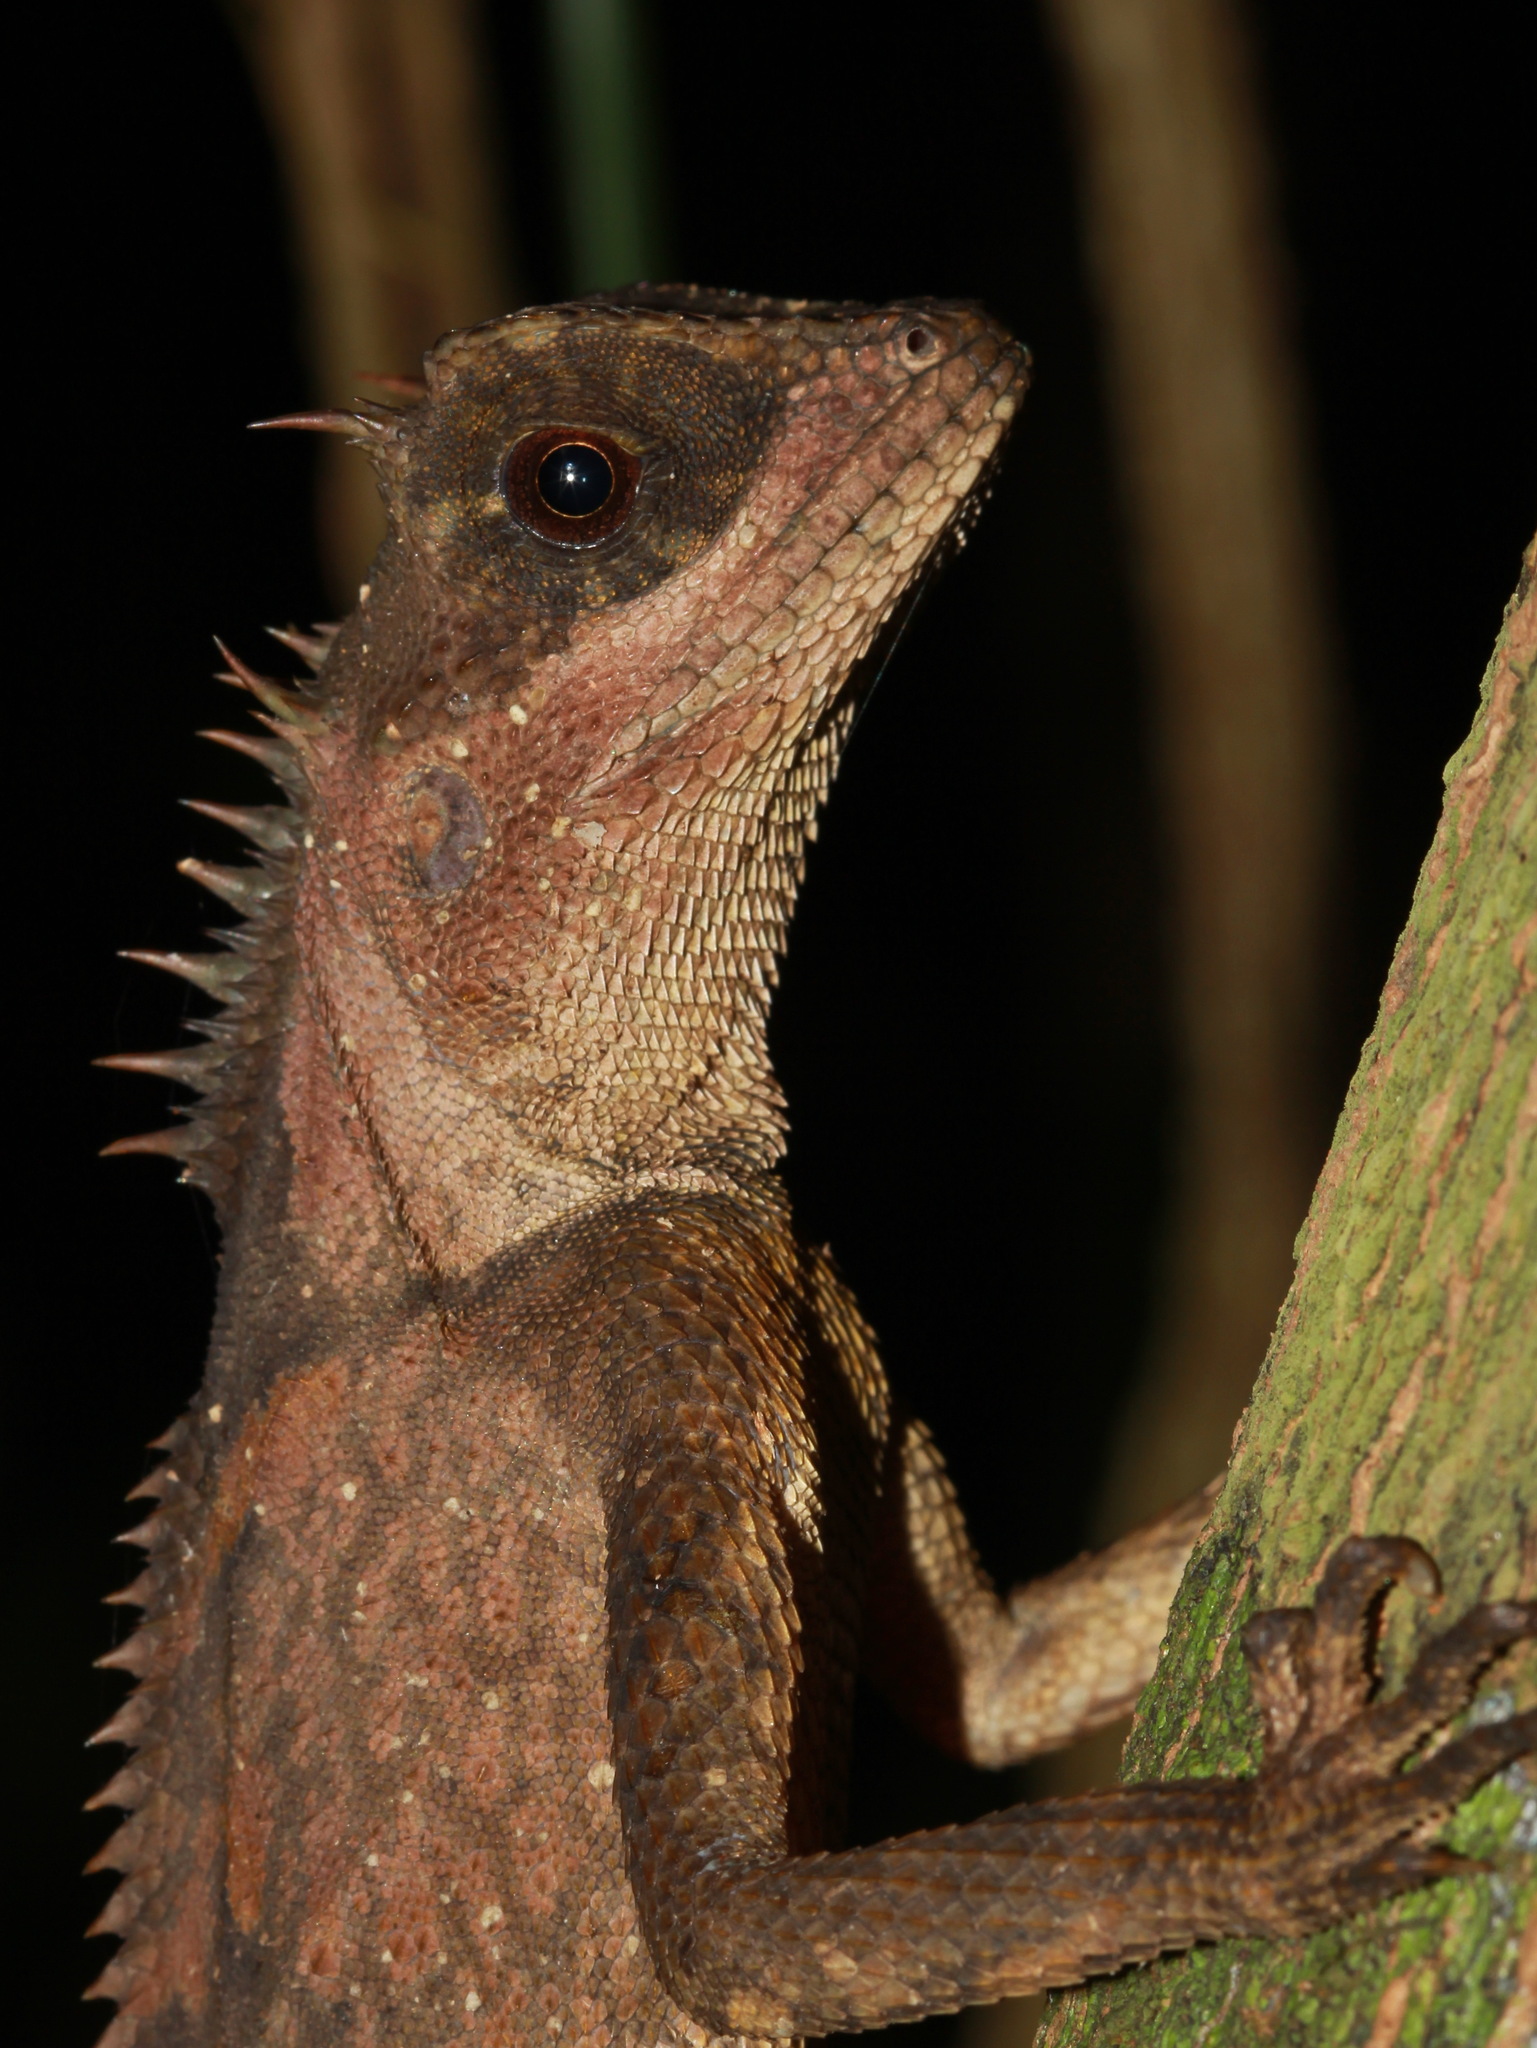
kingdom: Animalia
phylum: Chordata
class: Squamata
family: Agamidae
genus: Acanthosaura
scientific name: Acanthosaura
